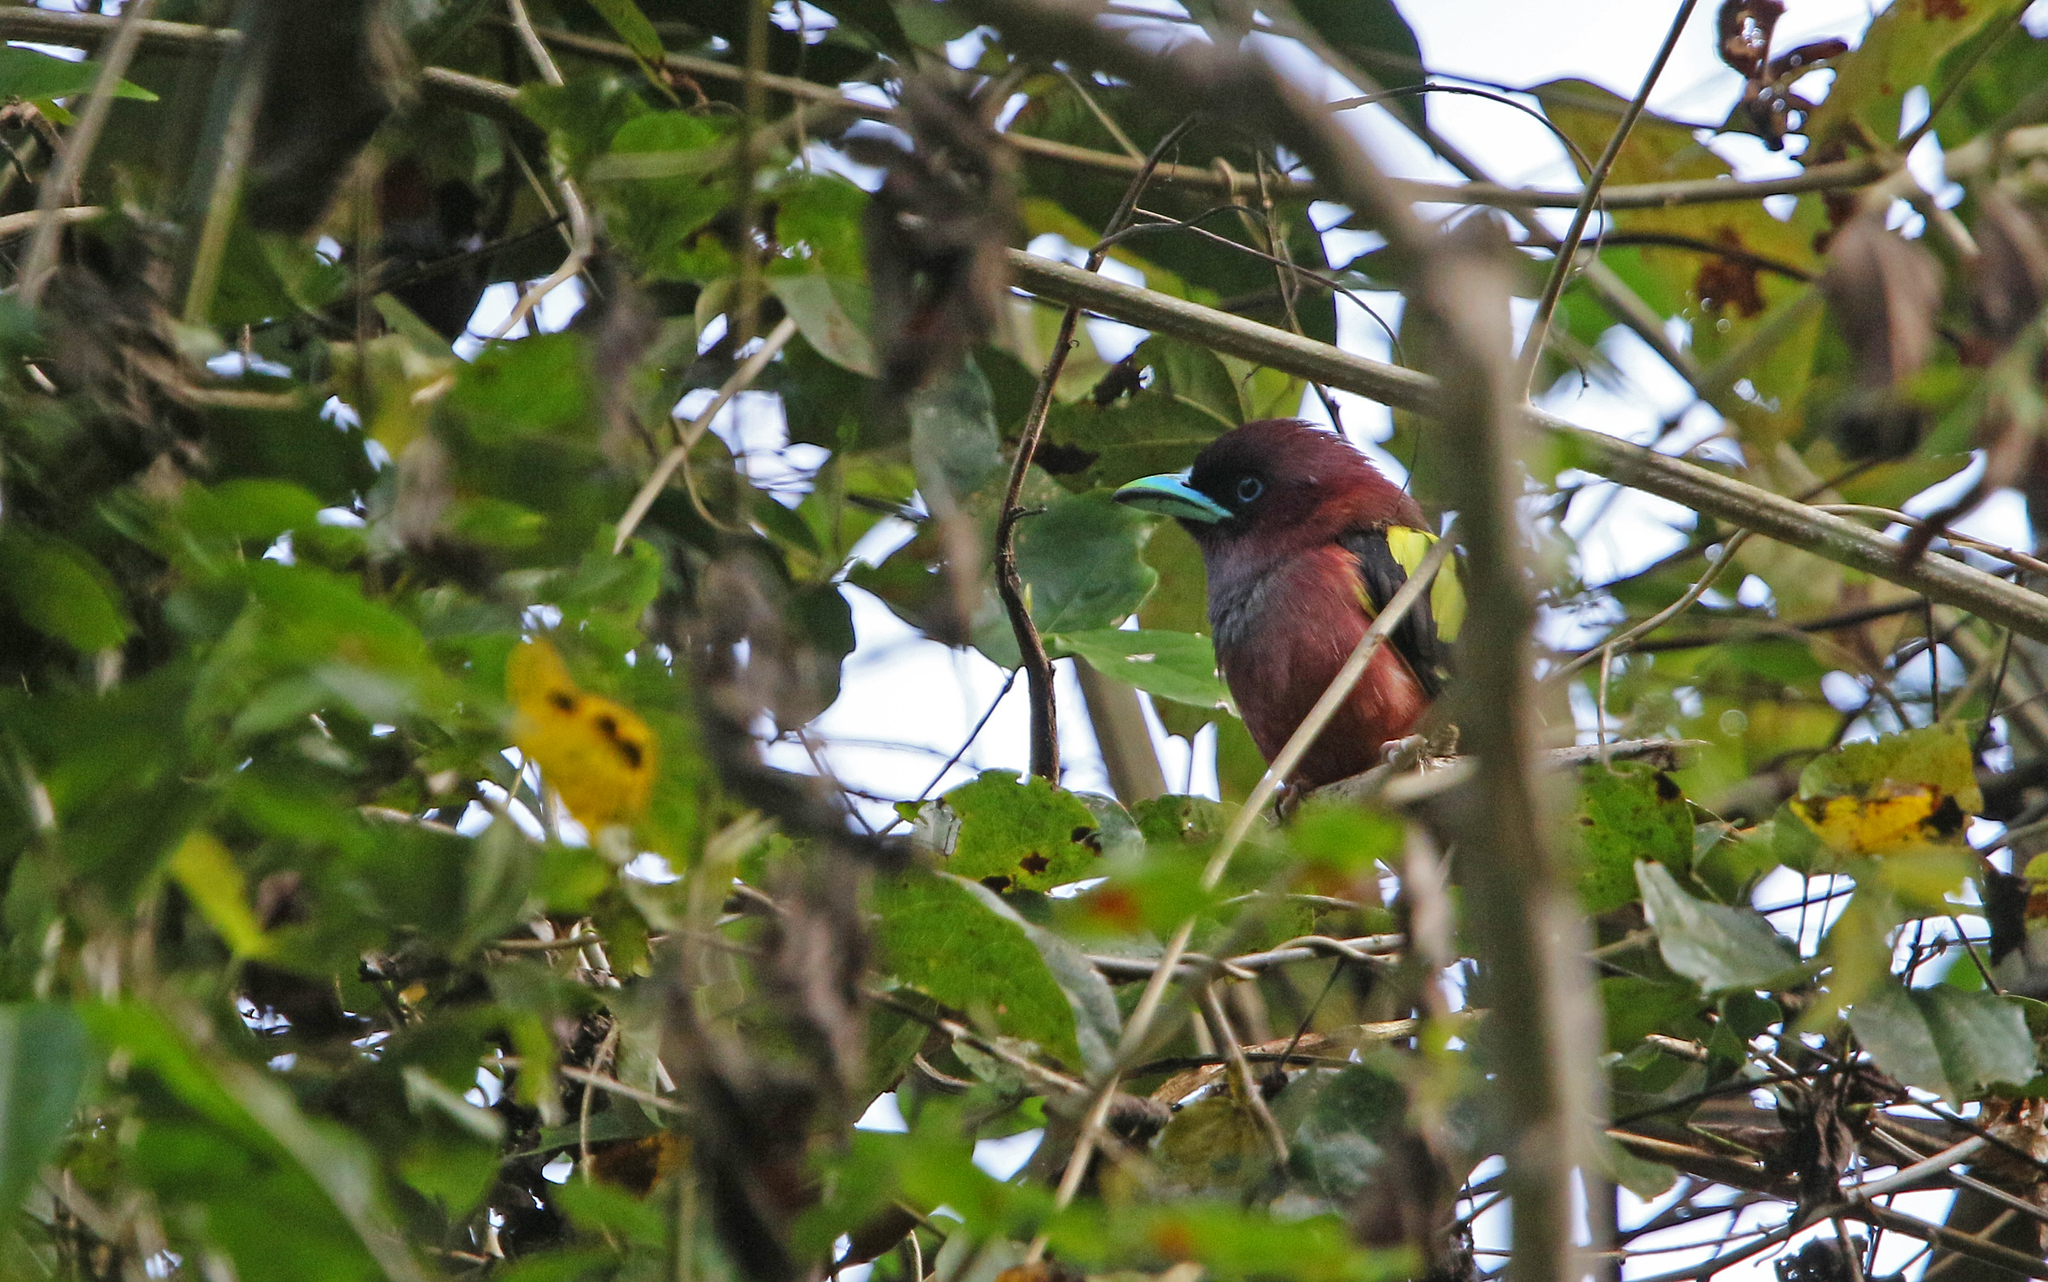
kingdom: Animalia
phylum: Chordata
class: Aves
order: Passeriformes
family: Eurylaimidae
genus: Eurylaimus
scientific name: Eurylaimus javanicus
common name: Banded broadbill
